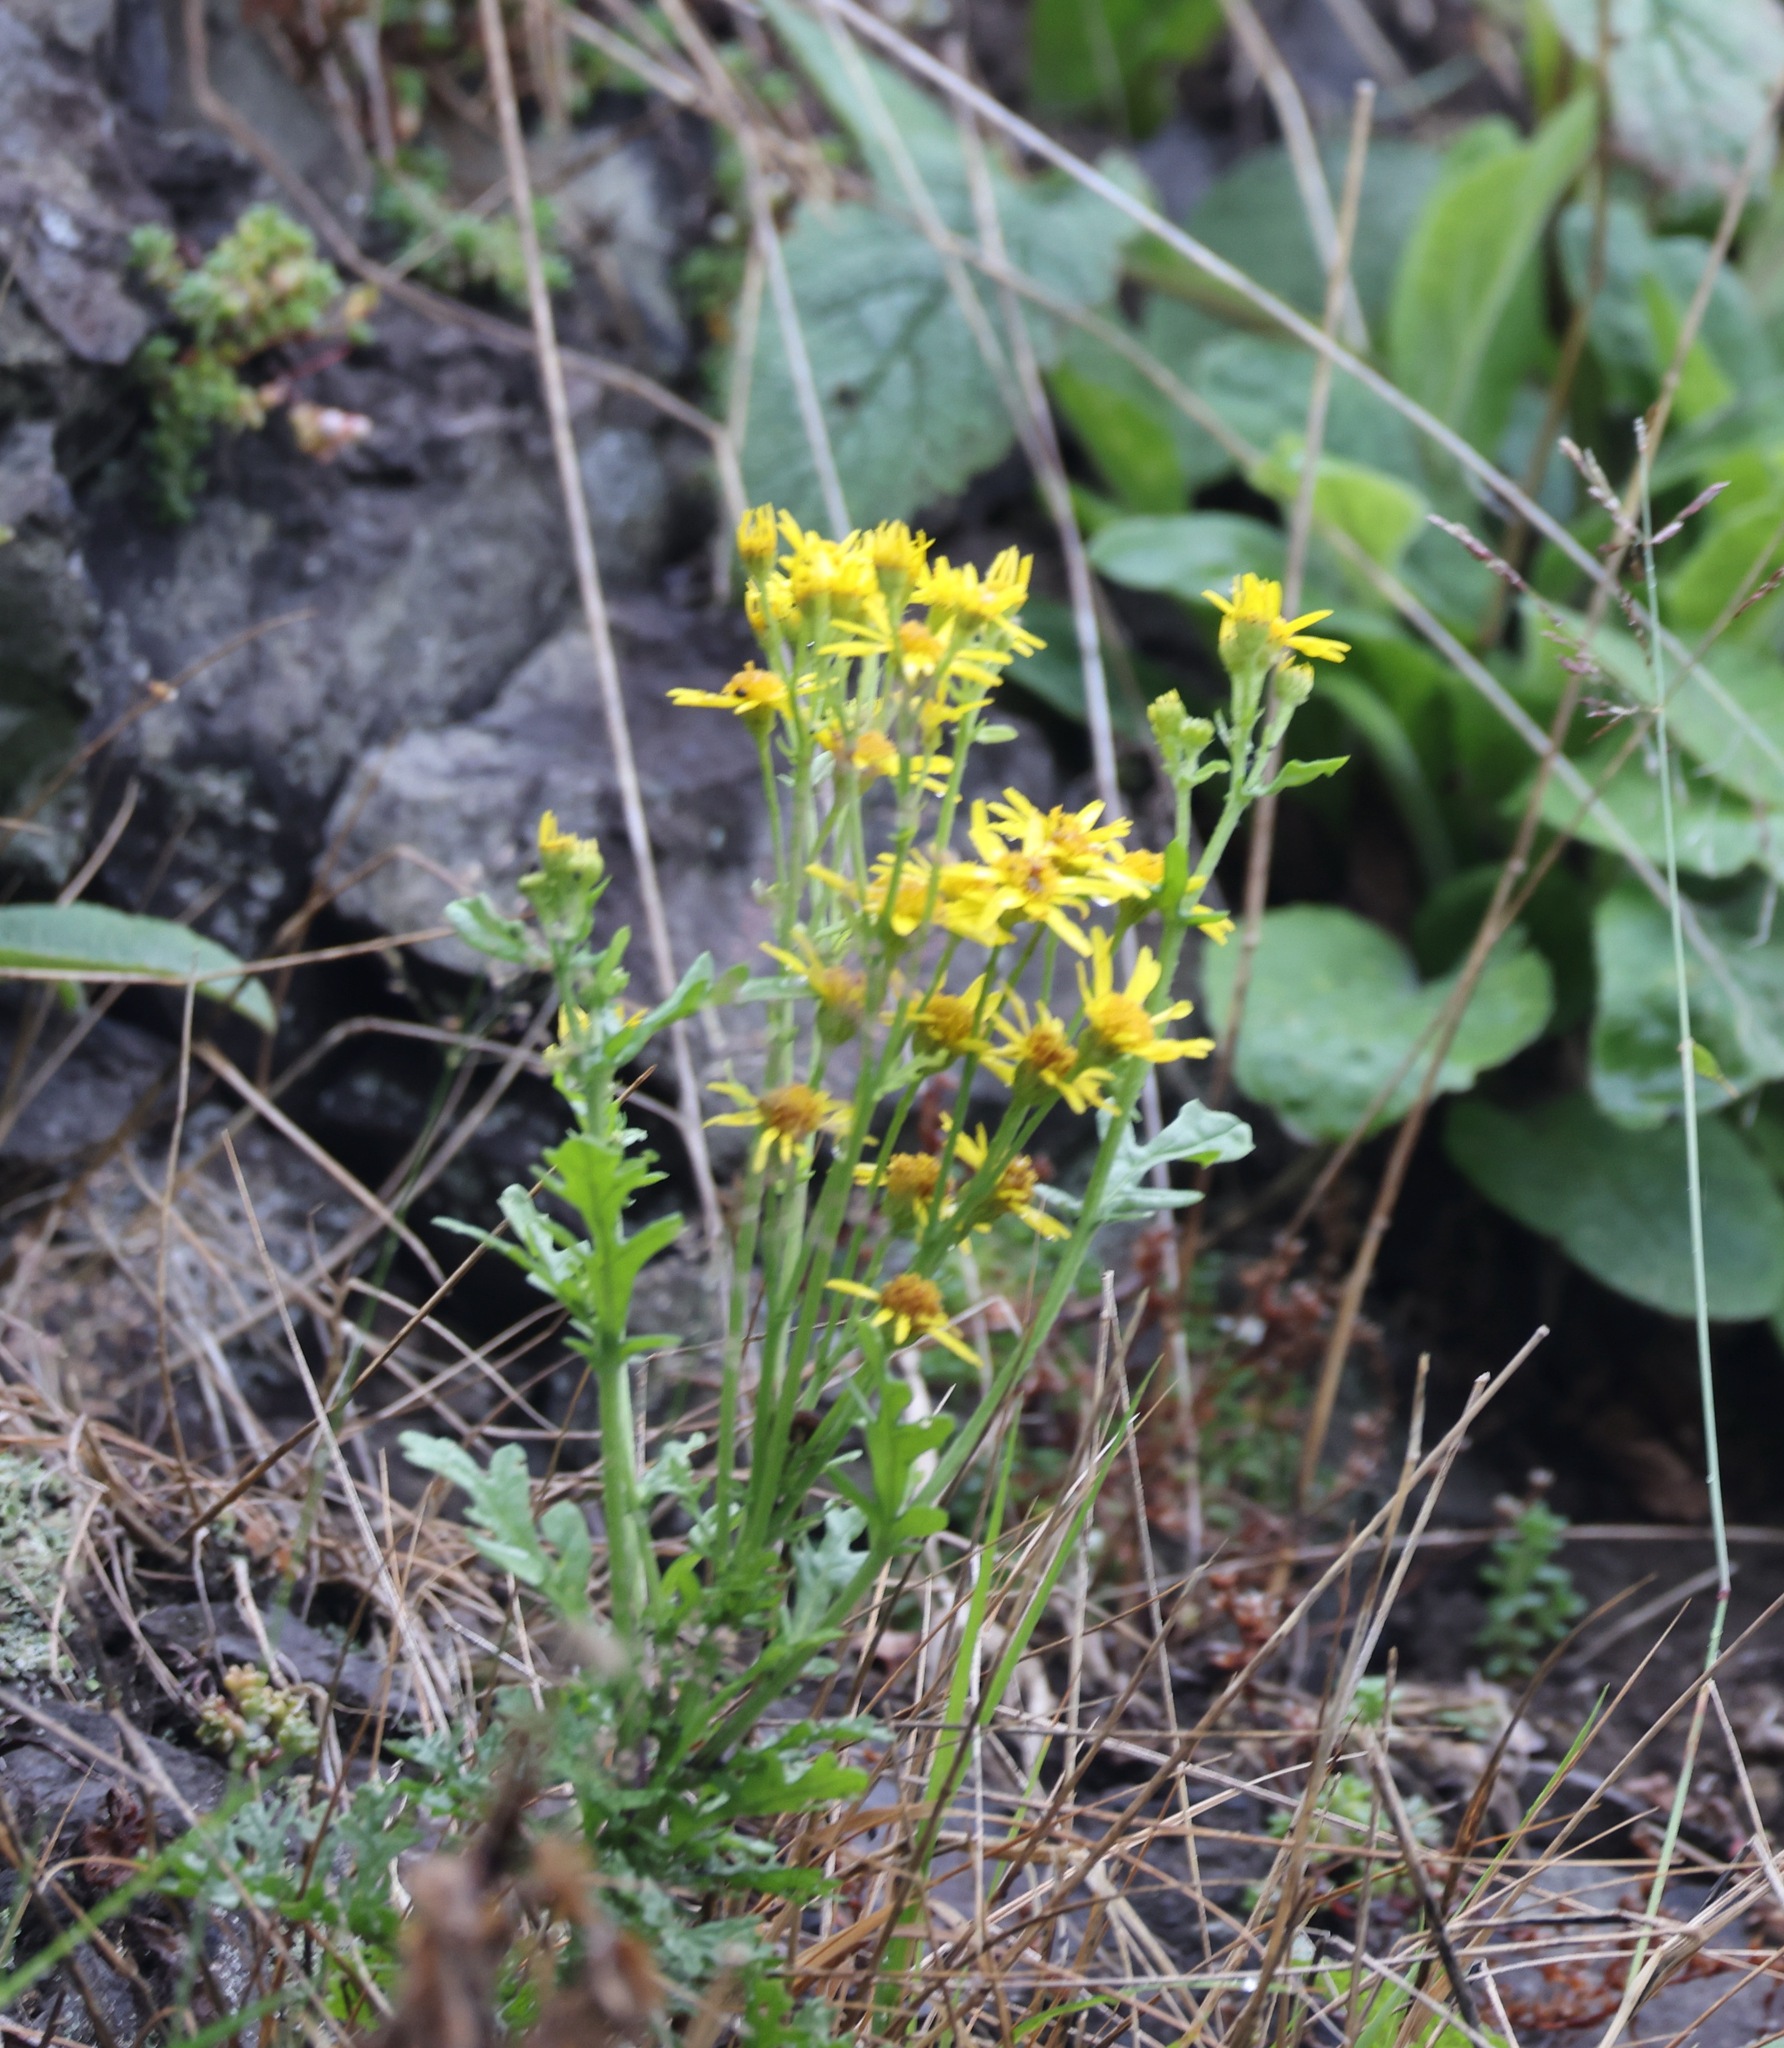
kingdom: Plantae
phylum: Tracheophyta
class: Magnoliopsida
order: Asterales
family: Asteraceae
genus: Jacobaea
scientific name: Jacobaea vulgaris
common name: Stinking willie
